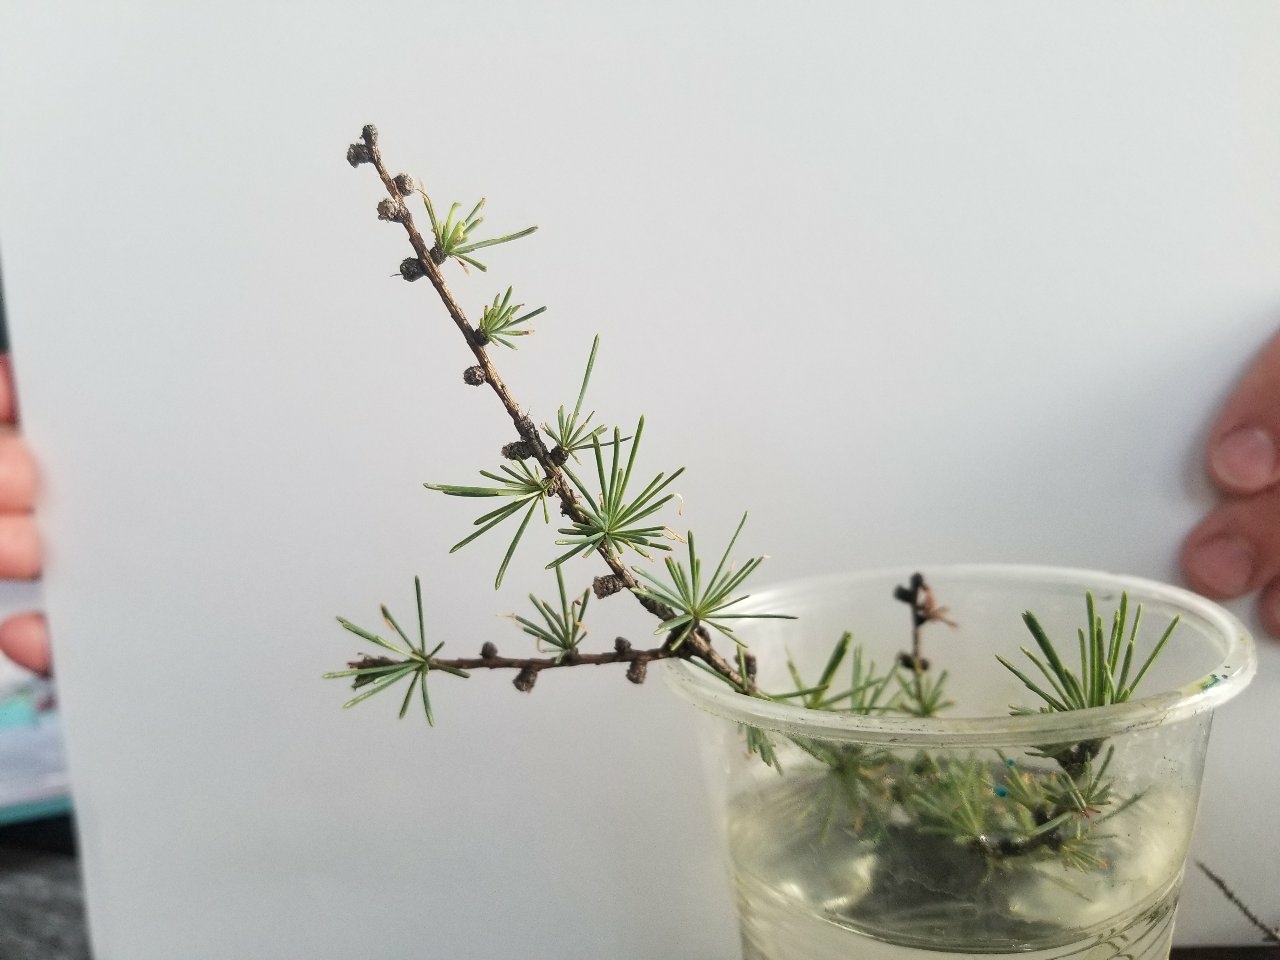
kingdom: Plantae
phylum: Tracheophyta
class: Pinopsida
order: Pinales
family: Pinaceae
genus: Larix
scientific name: Larix laricina
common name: American larch
